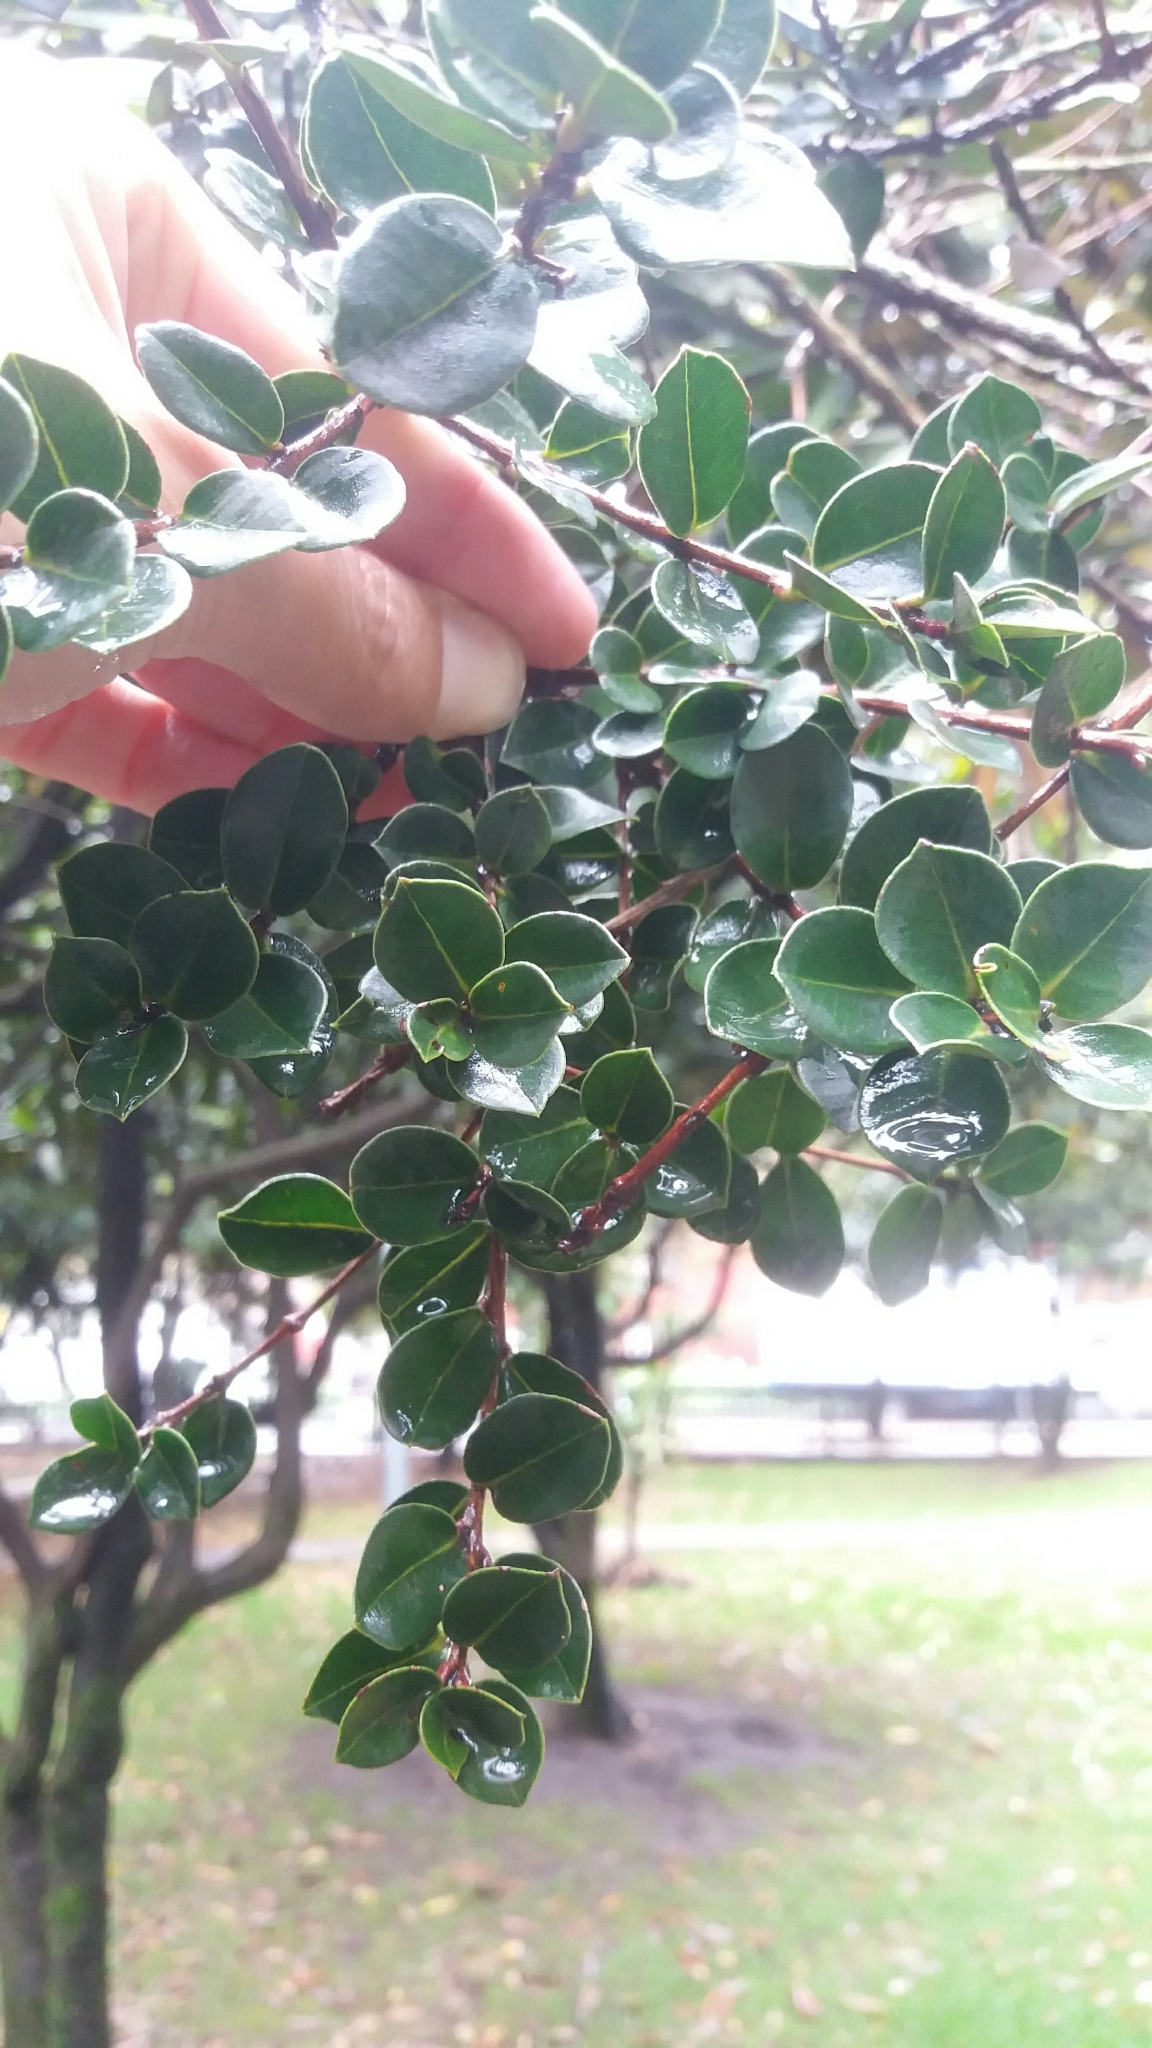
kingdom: Plantae
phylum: Tracheophyta
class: Magnoliopsida
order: Myrtales
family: Myrtaceae
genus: Myrcianthes
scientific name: Myrcianthes leucoxyla
